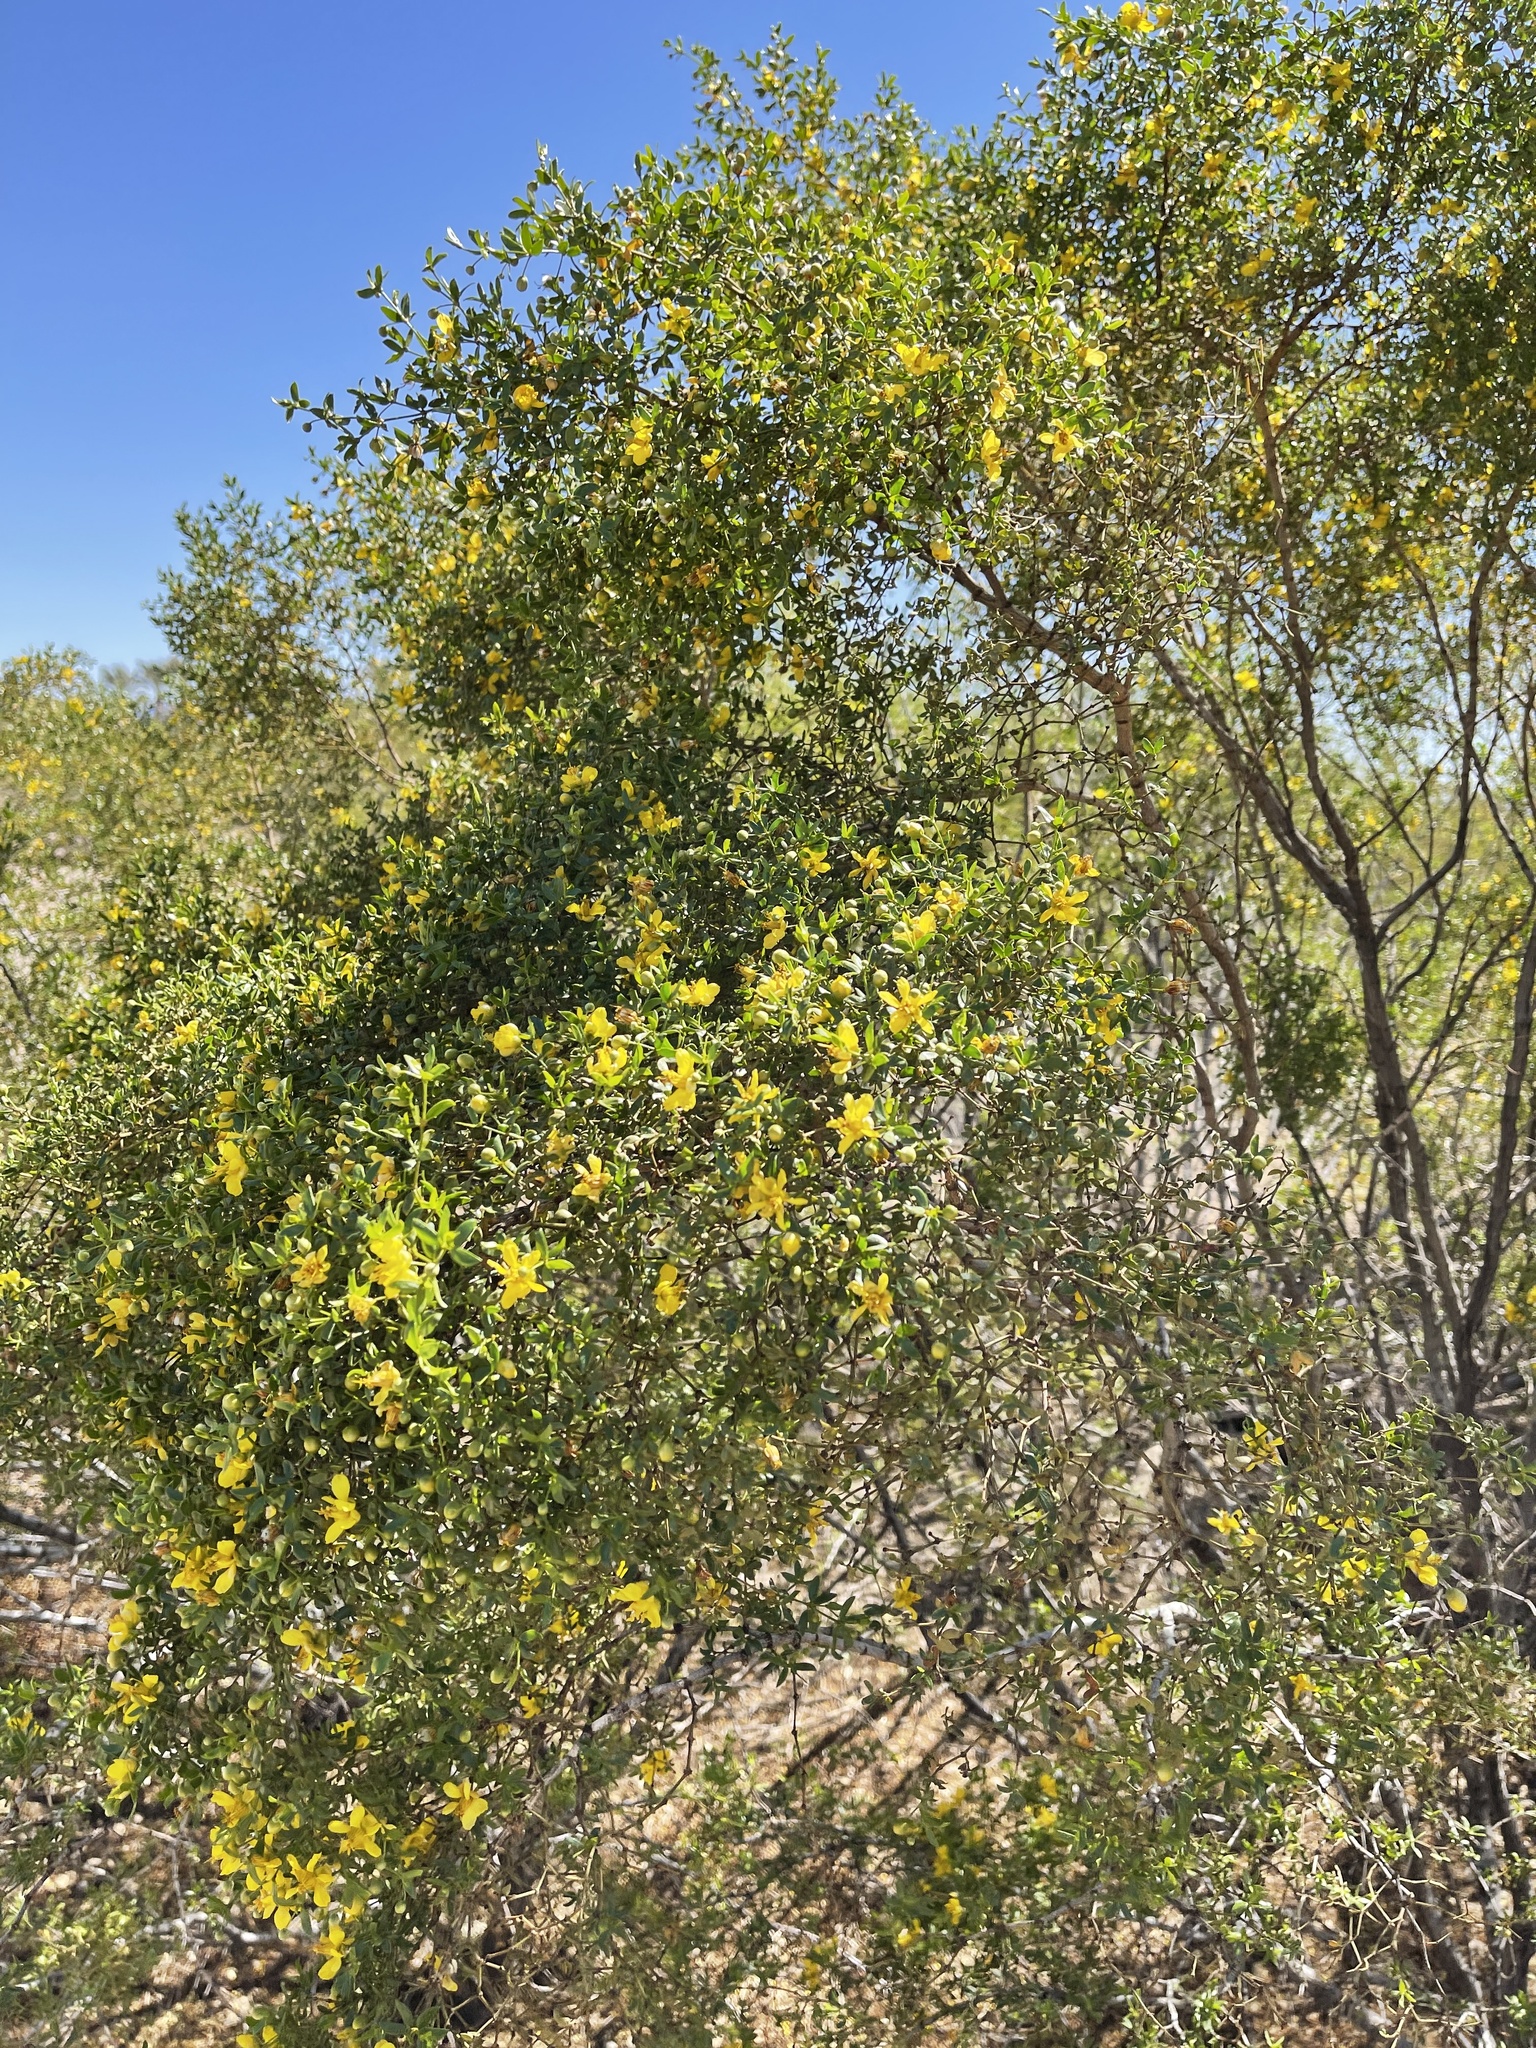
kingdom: Plantae
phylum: Tracheophyta
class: Magnoliopsida
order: Zygophyllales
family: Zygophyllaceae
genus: Larrea
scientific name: Larrea tridentata
